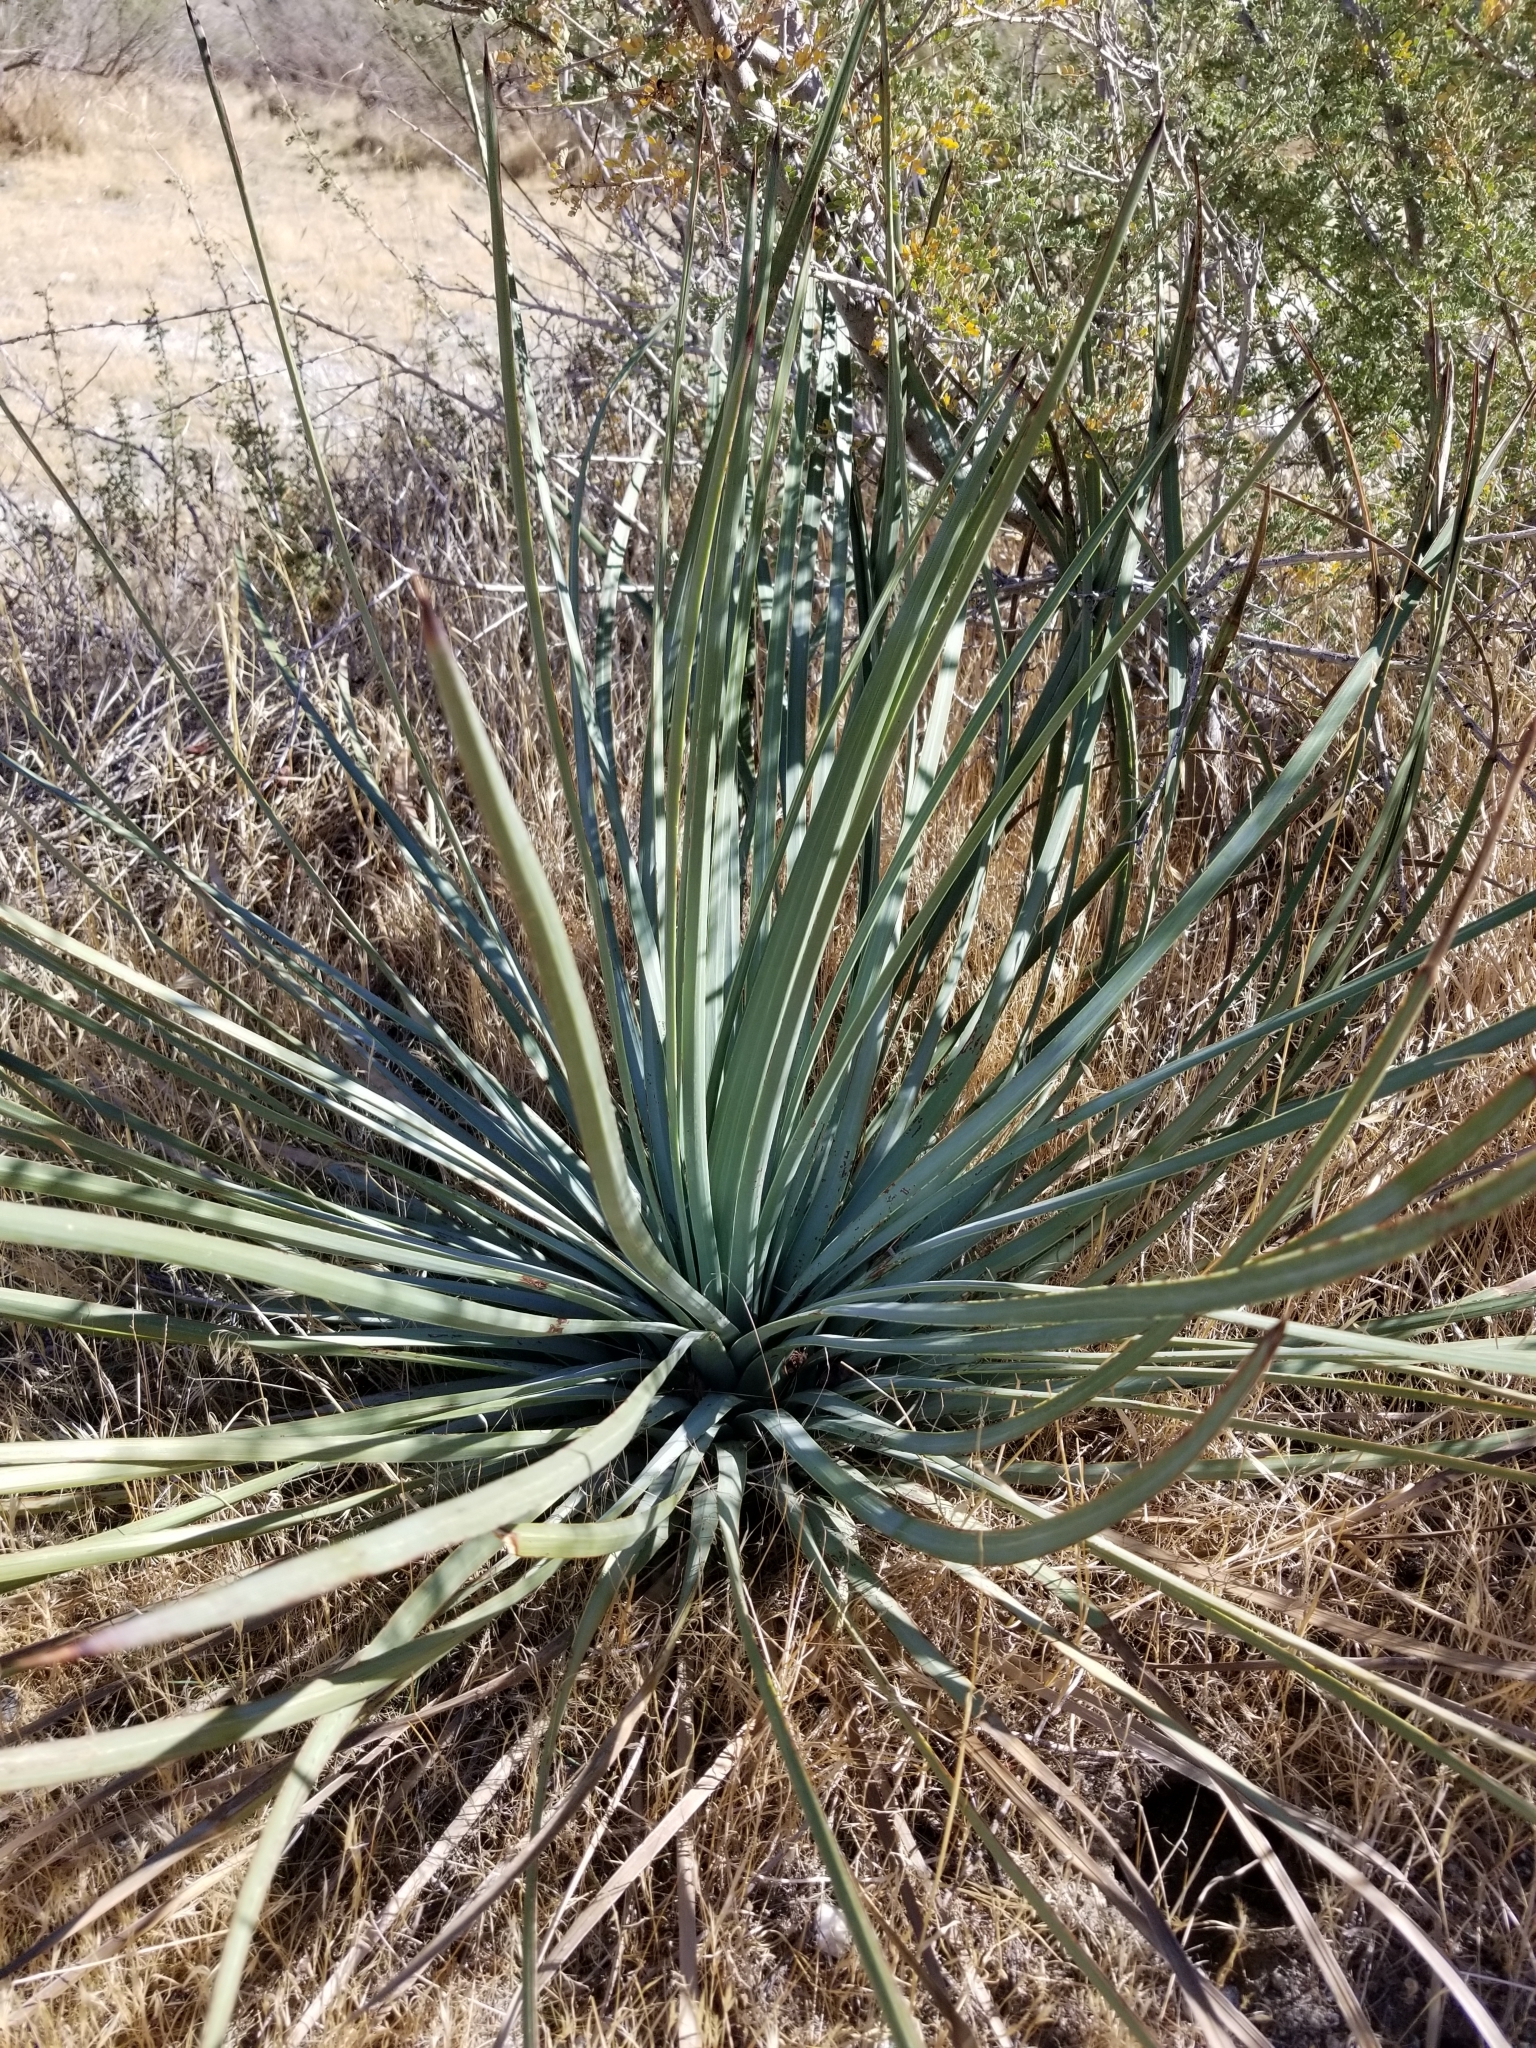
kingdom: Plantae
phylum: Tracheophyta
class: Liliopsida
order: Asparagales
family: Asparagaceae
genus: Hesperoyucca
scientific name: Hesperoyucca whipplei
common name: Our lord's-candle
